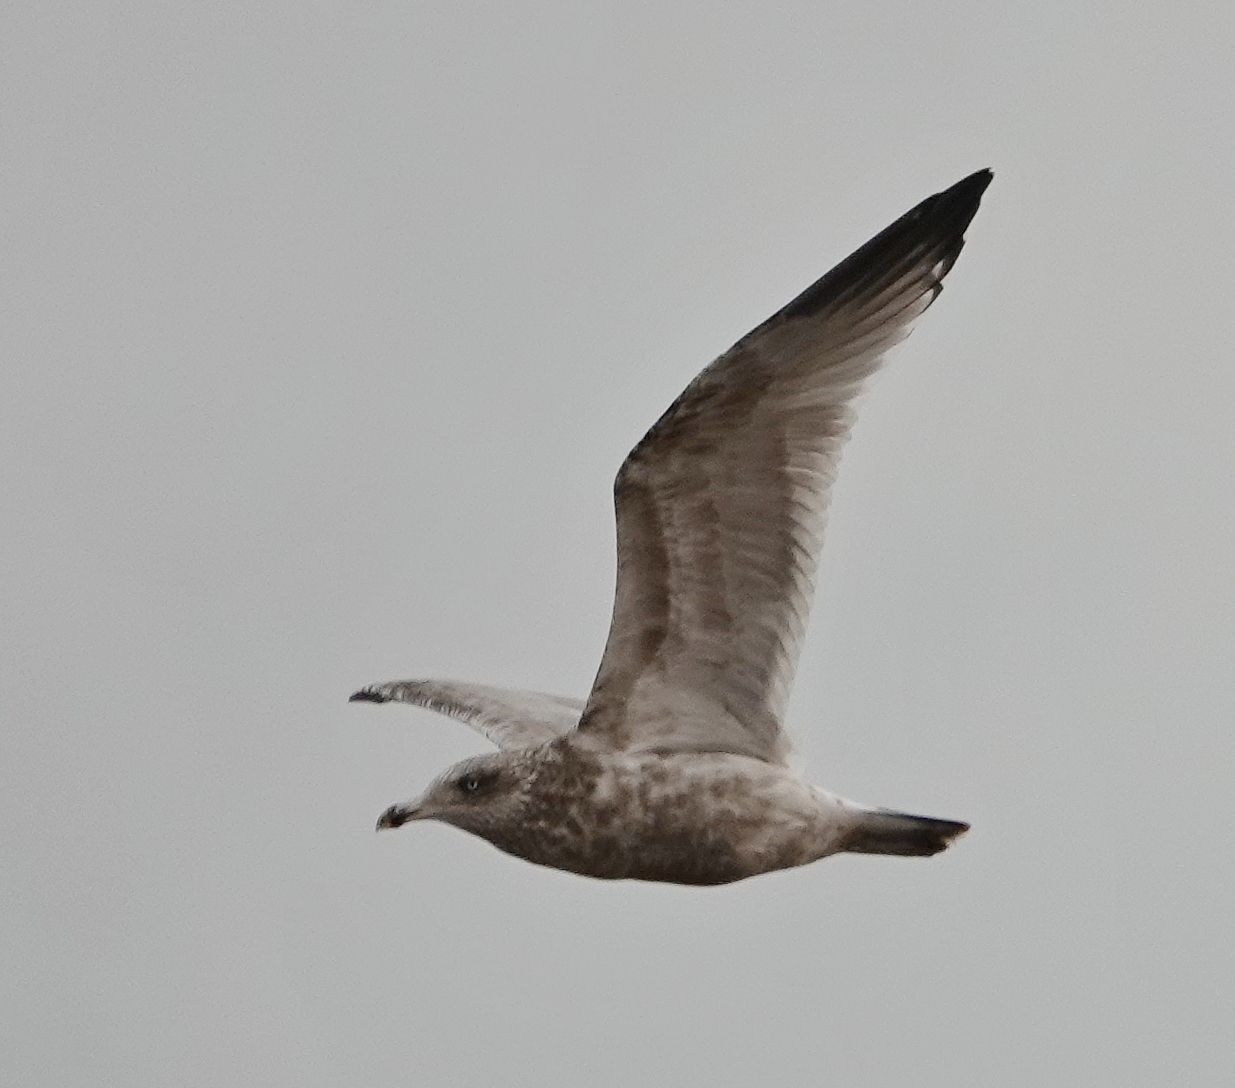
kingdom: Animalia
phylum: Chordata
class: Aves
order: Charadriiformes
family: Laridae
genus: Larus
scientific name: Larus argentatus
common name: Herring gull
